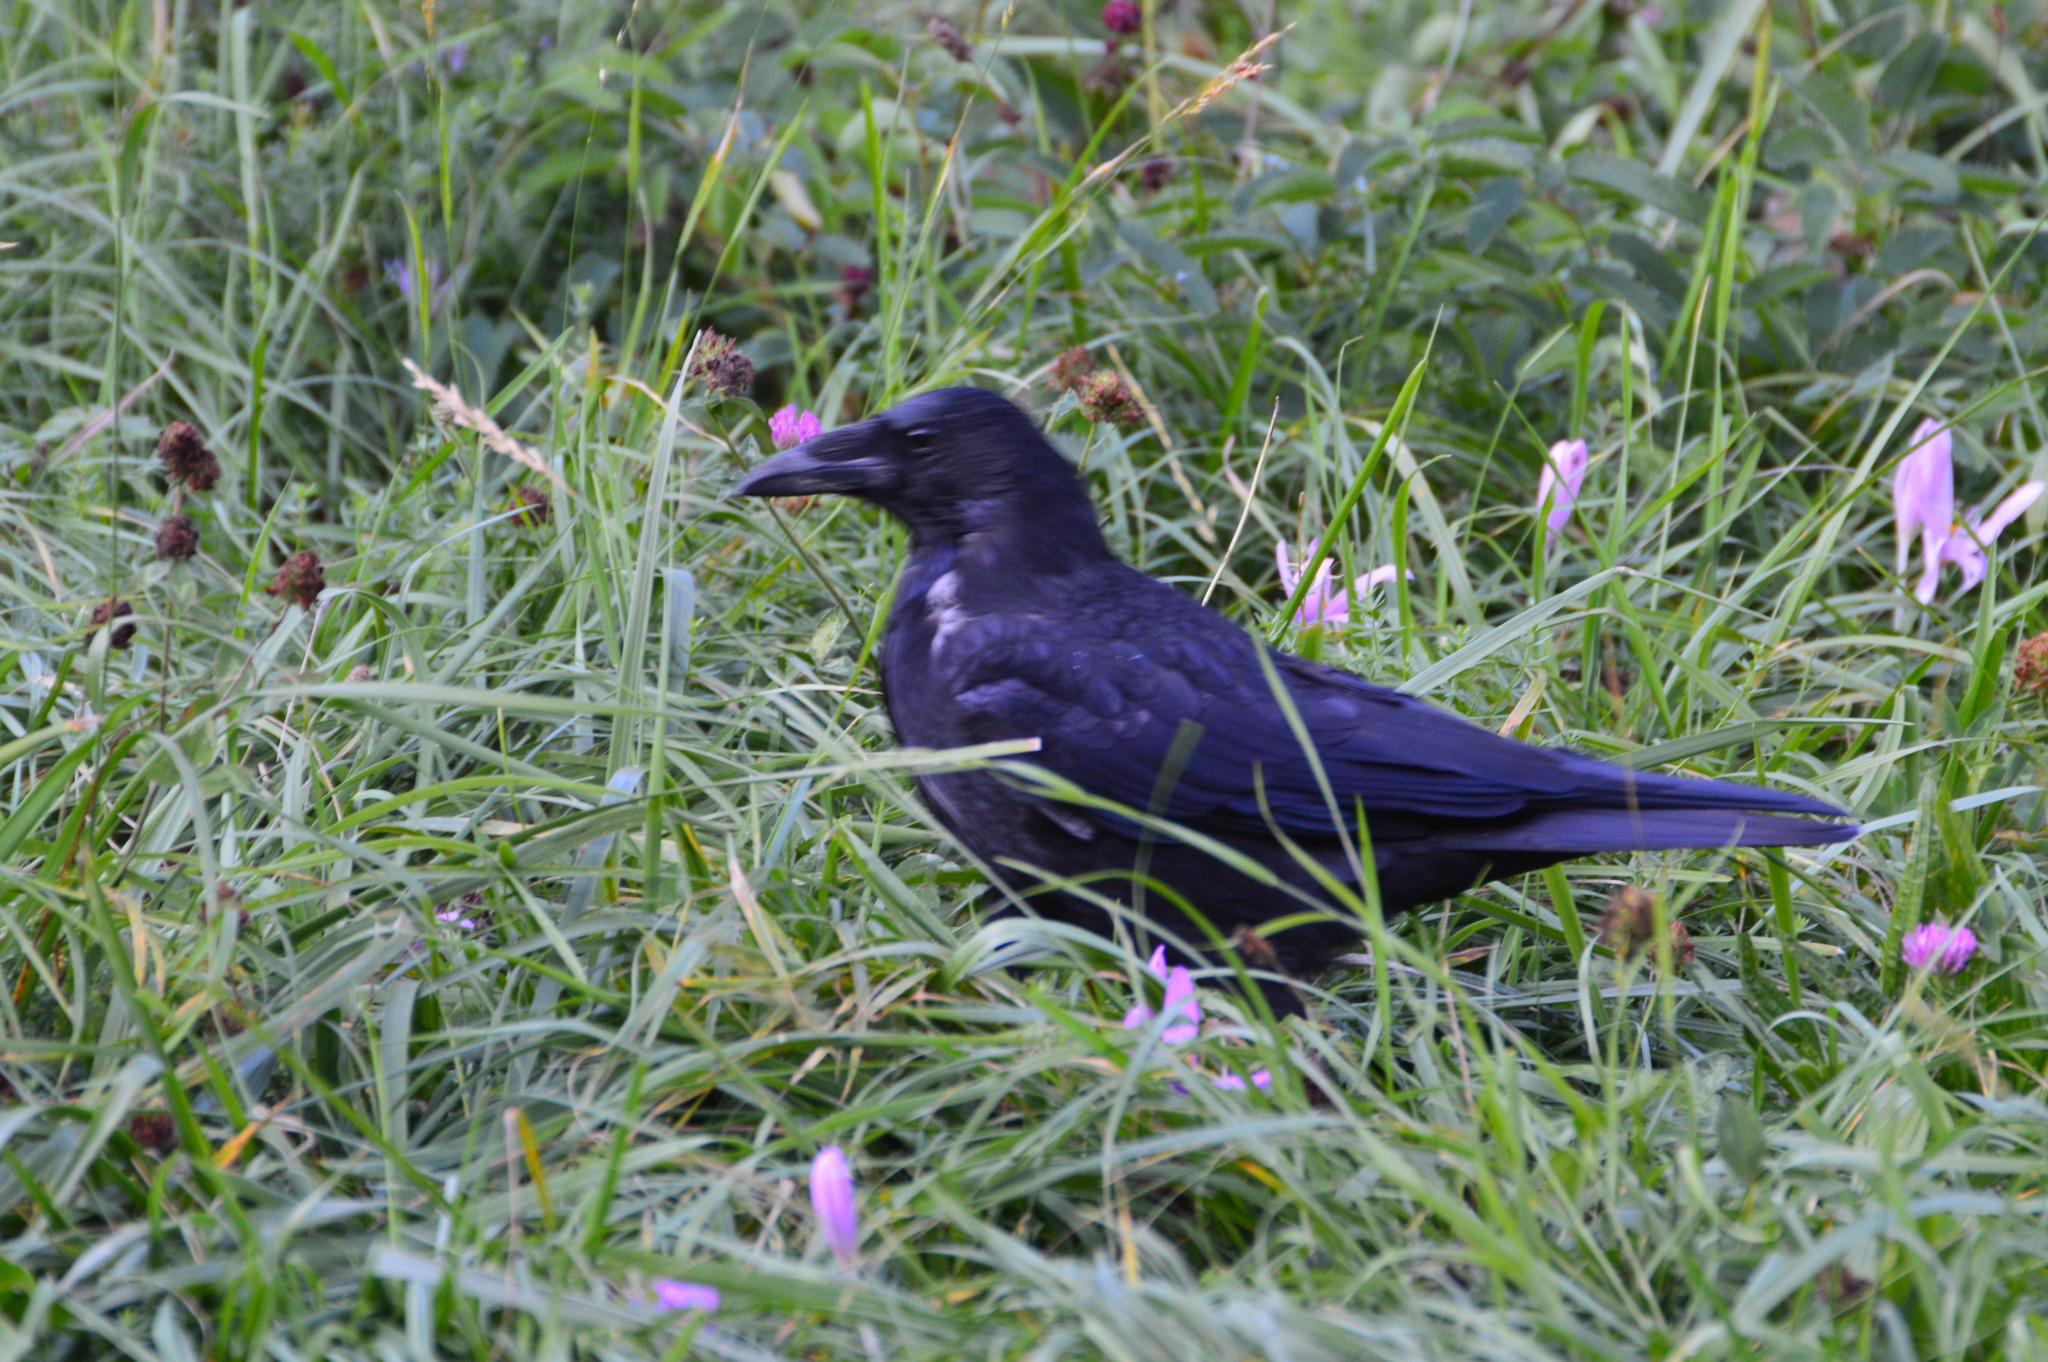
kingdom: Animalia
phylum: Chordata
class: Aves
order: Passeriformes
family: Corvidae
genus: Corvus
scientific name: Corvus
